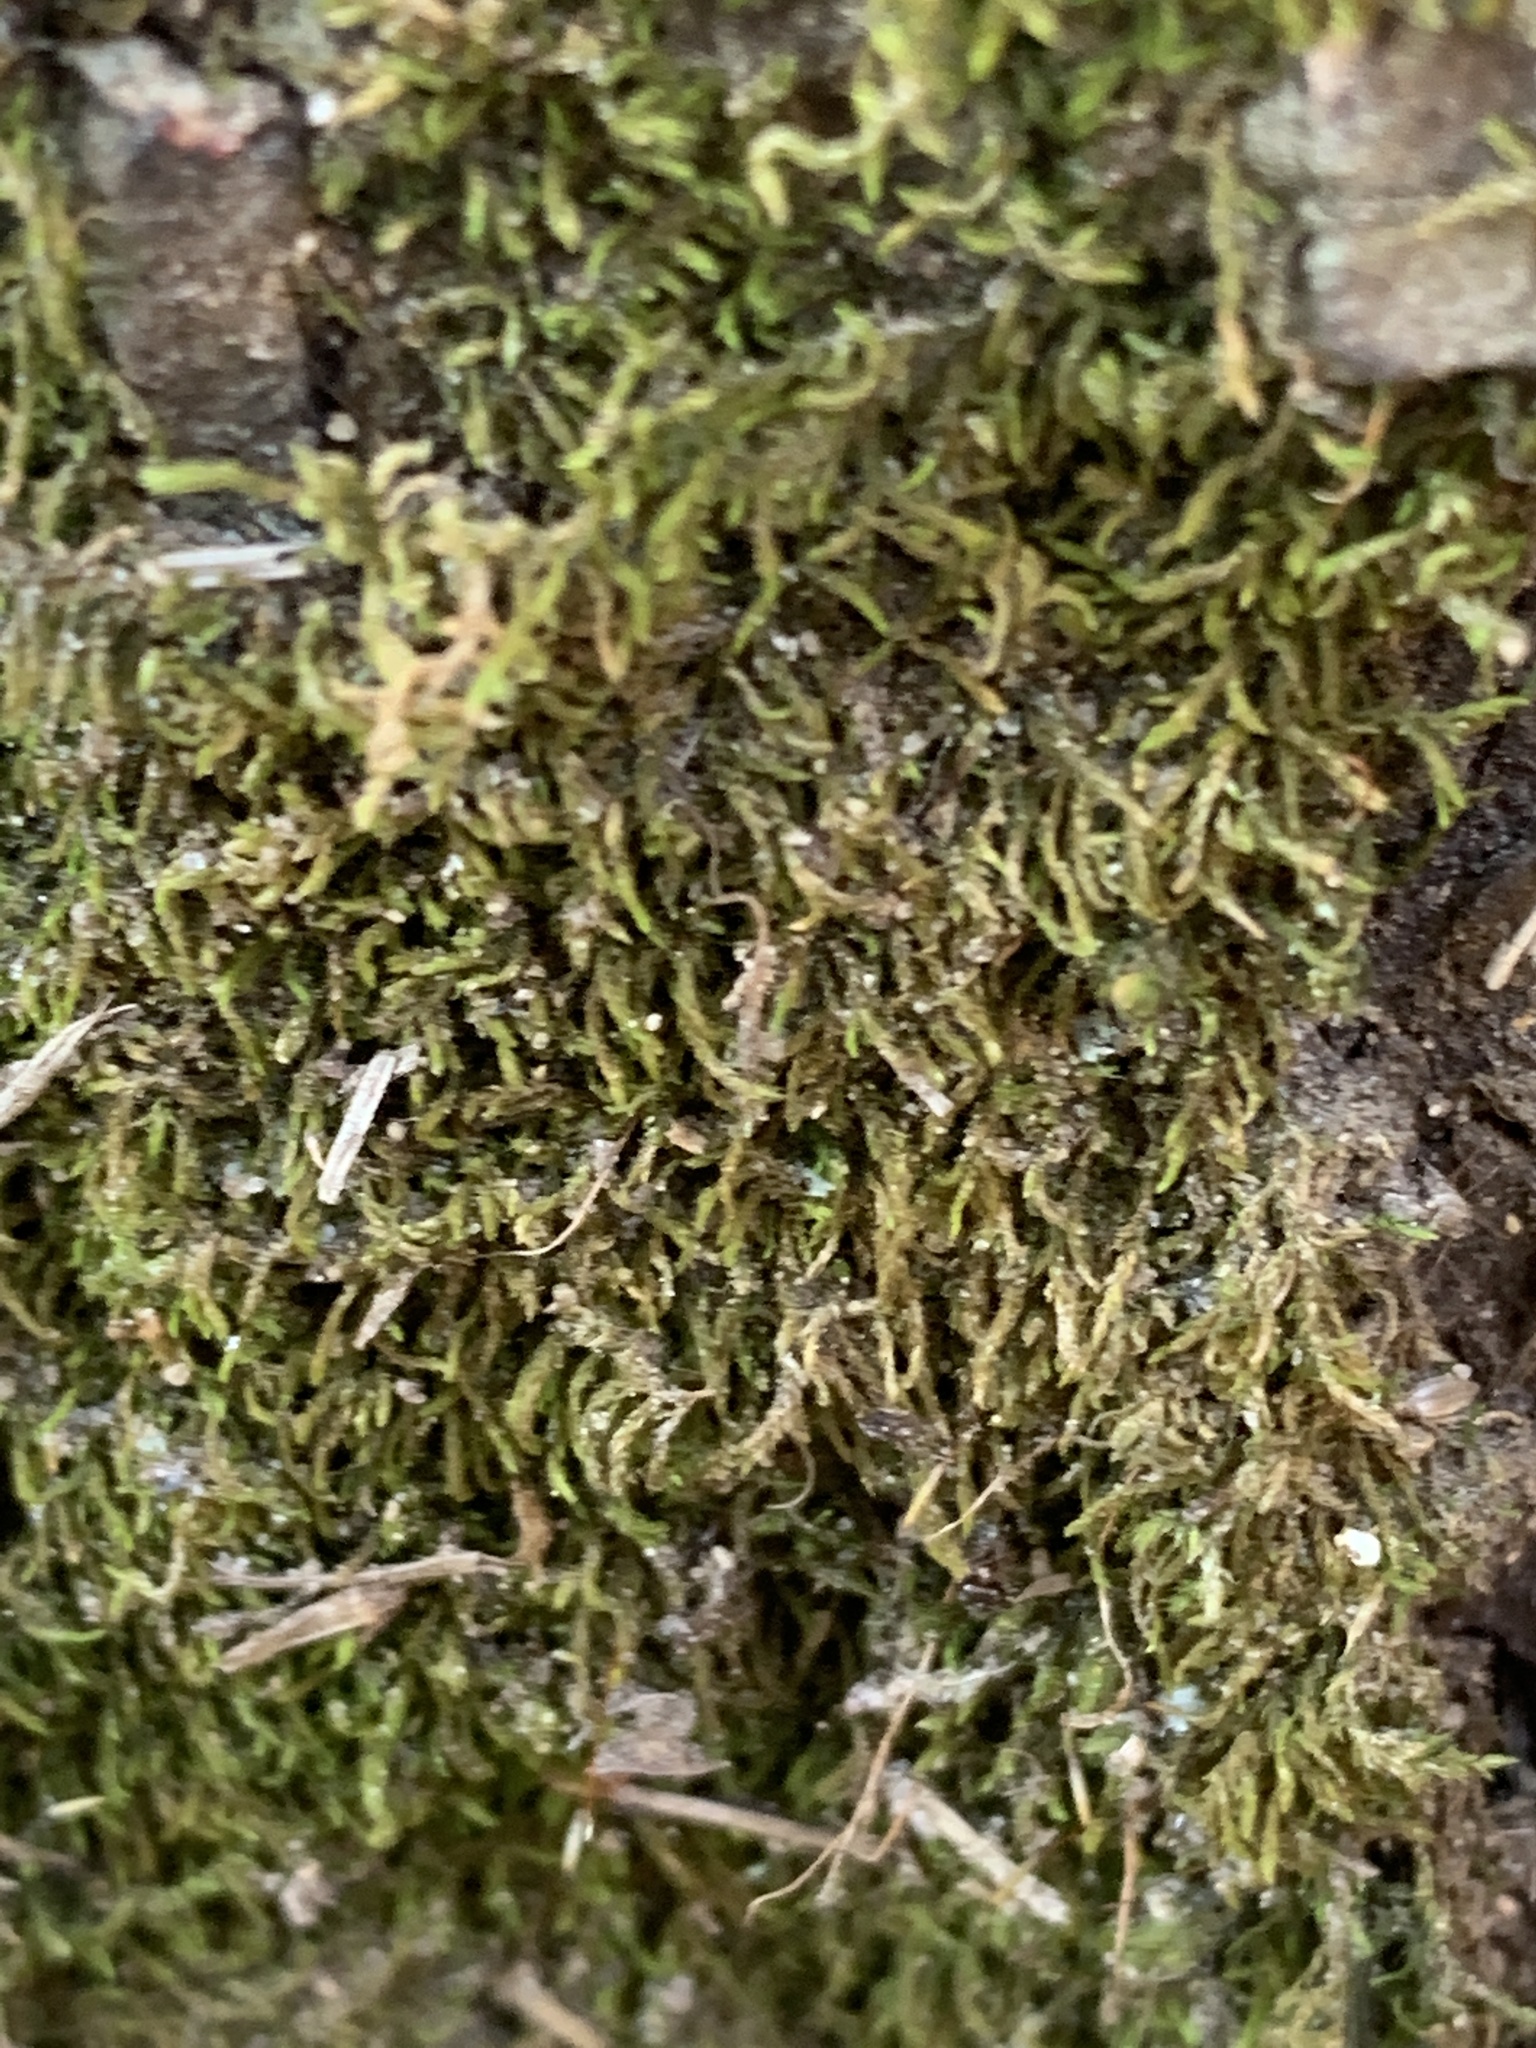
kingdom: Plantae
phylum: Bryophyta
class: Bryopsida
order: Hypnales
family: Entodontaceae
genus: Entodon
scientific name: Entodon seductrix
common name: Round-stemmed entodon moss
